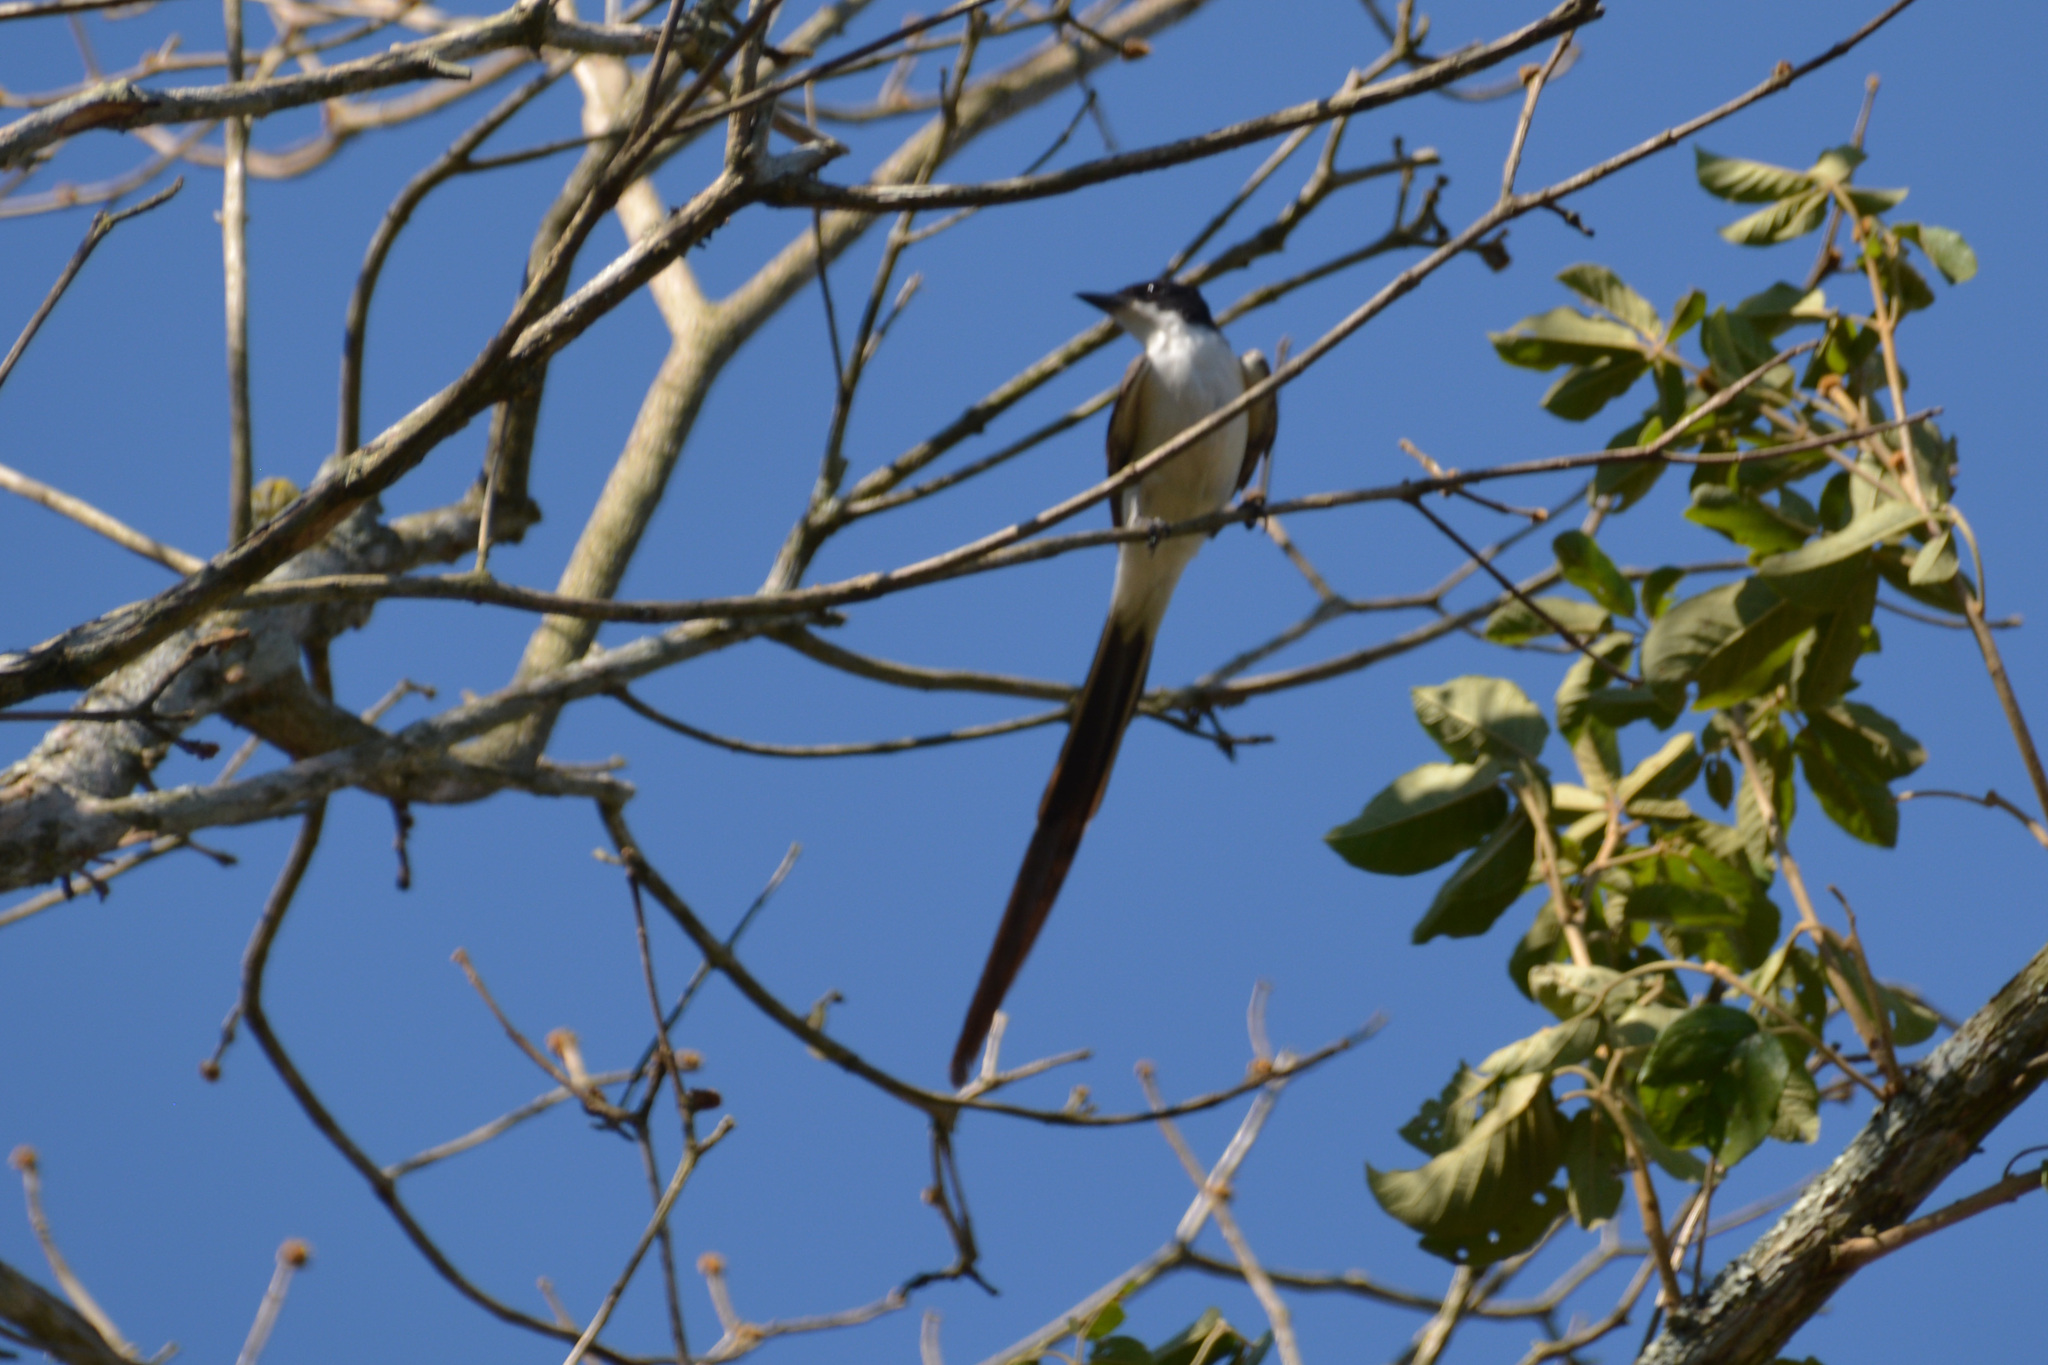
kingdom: Animalia
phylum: Chordata
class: Aves
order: Passeriformes
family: Tyrannidae
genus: Tyrannus
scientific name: Tyrannus savana
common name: Fork-tailed flycatcher
